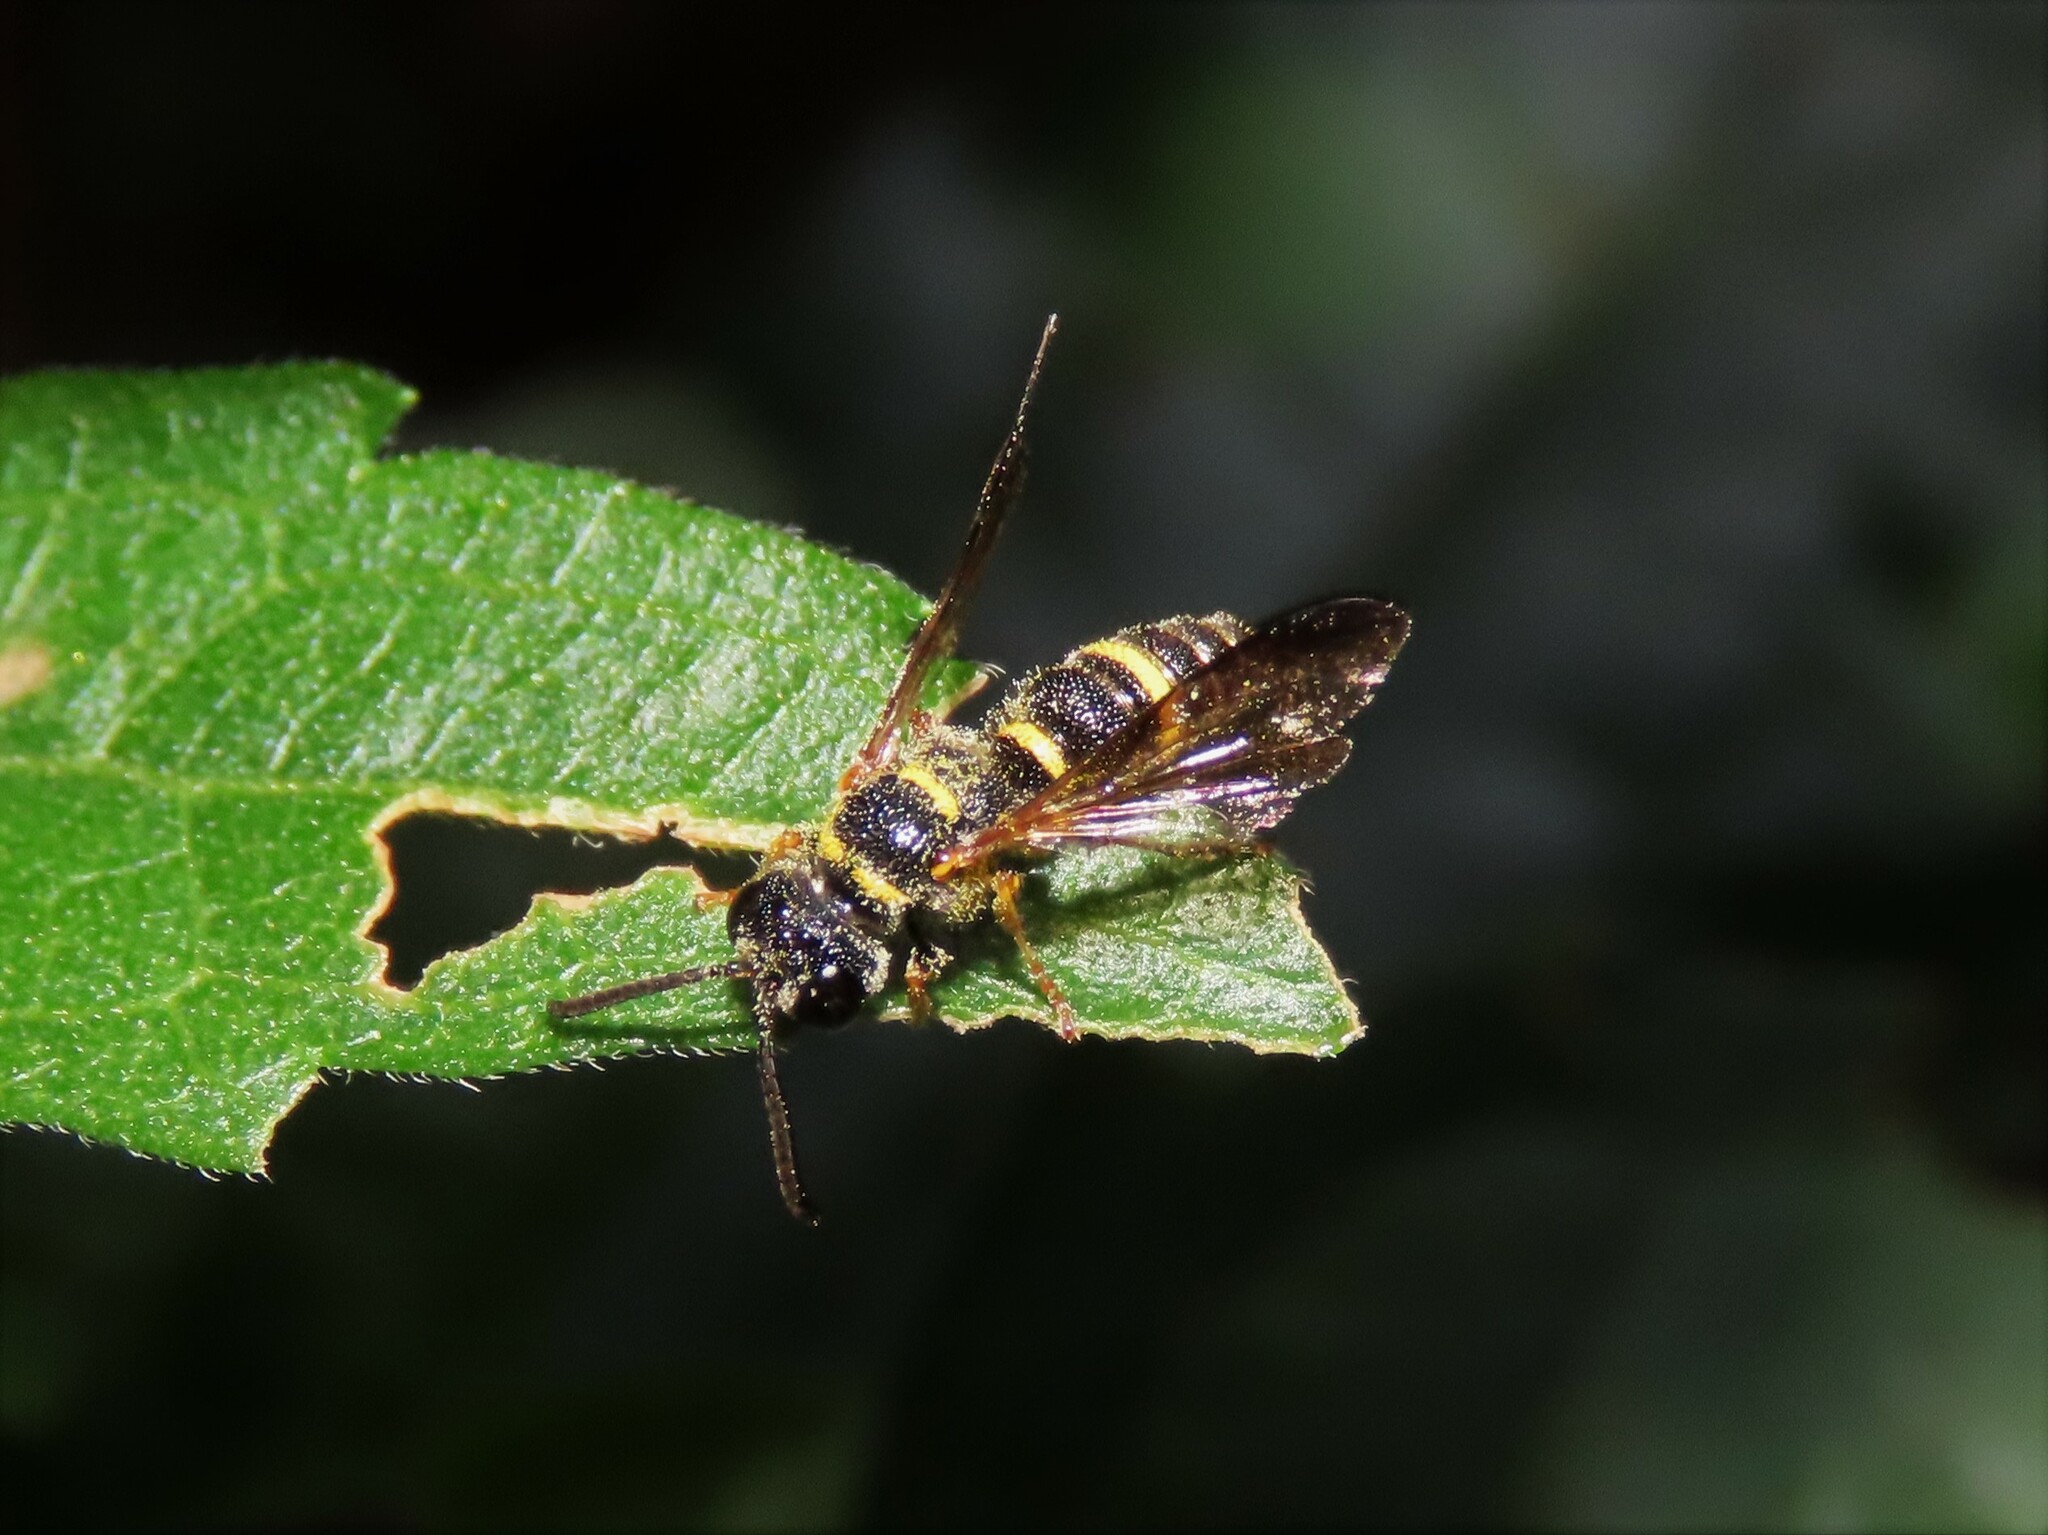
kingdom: Animalia
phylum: Arthropoda
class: Insecta
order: Hymenoptera
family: Crabronidae
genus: Cerceris
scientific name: Cerceris insolita
